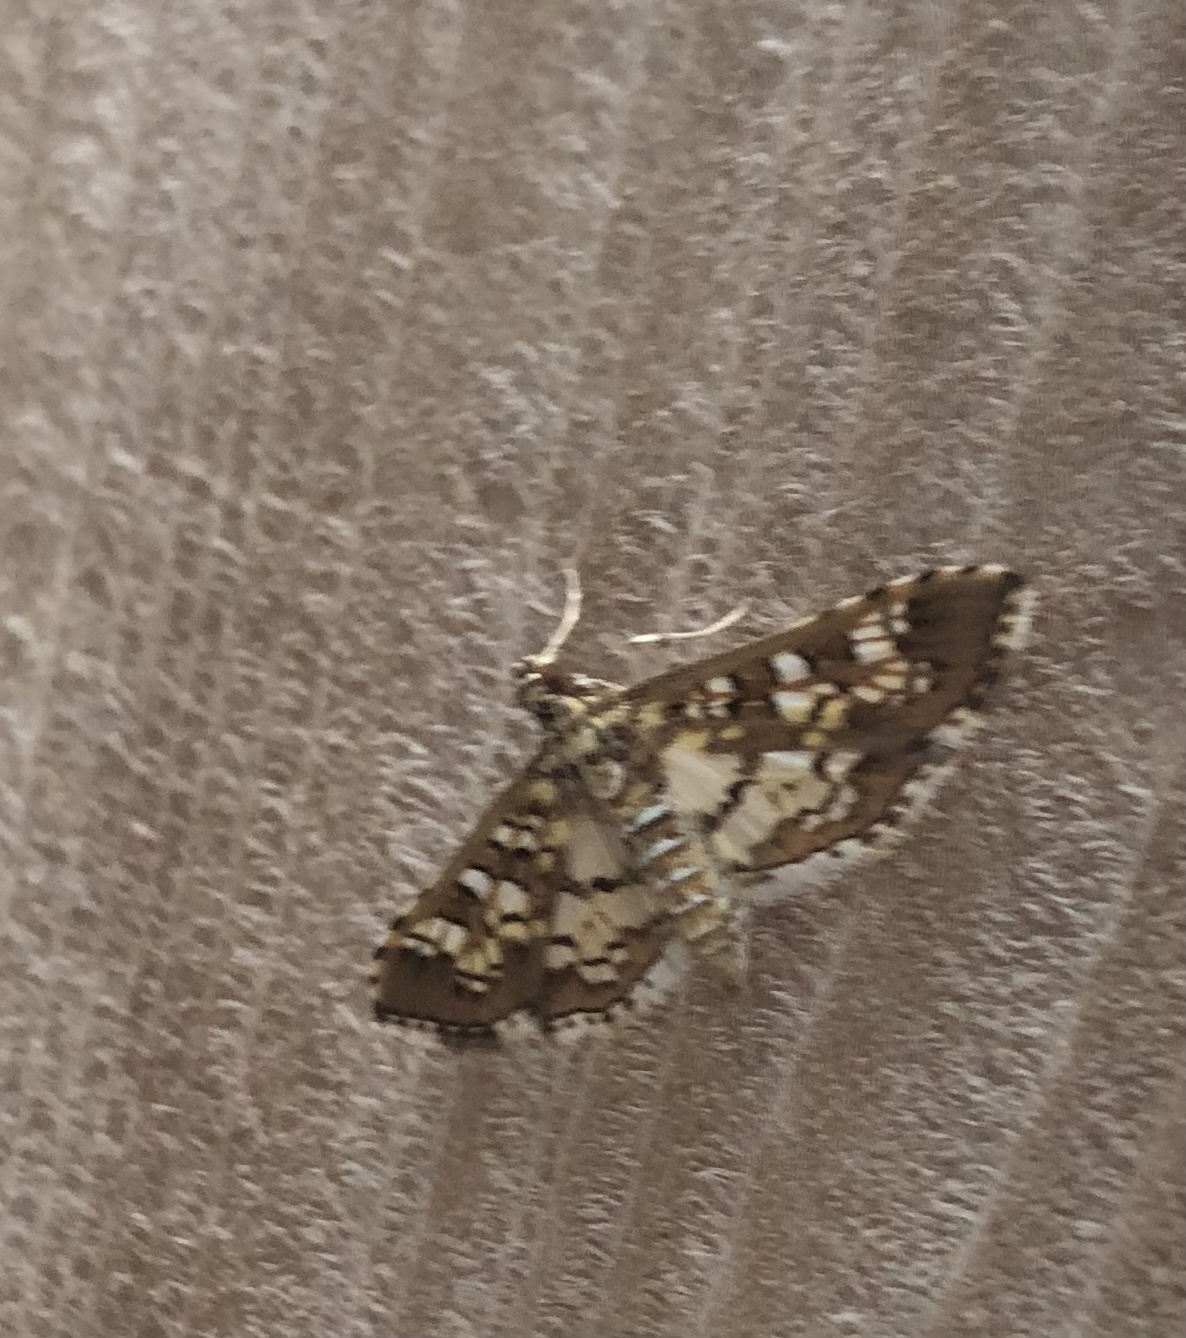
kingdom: Animalia
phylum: Arthropoda
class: Insecta
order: Lepidoptera
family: Crambidae
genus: Samea
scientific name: Samea ecclesialis
